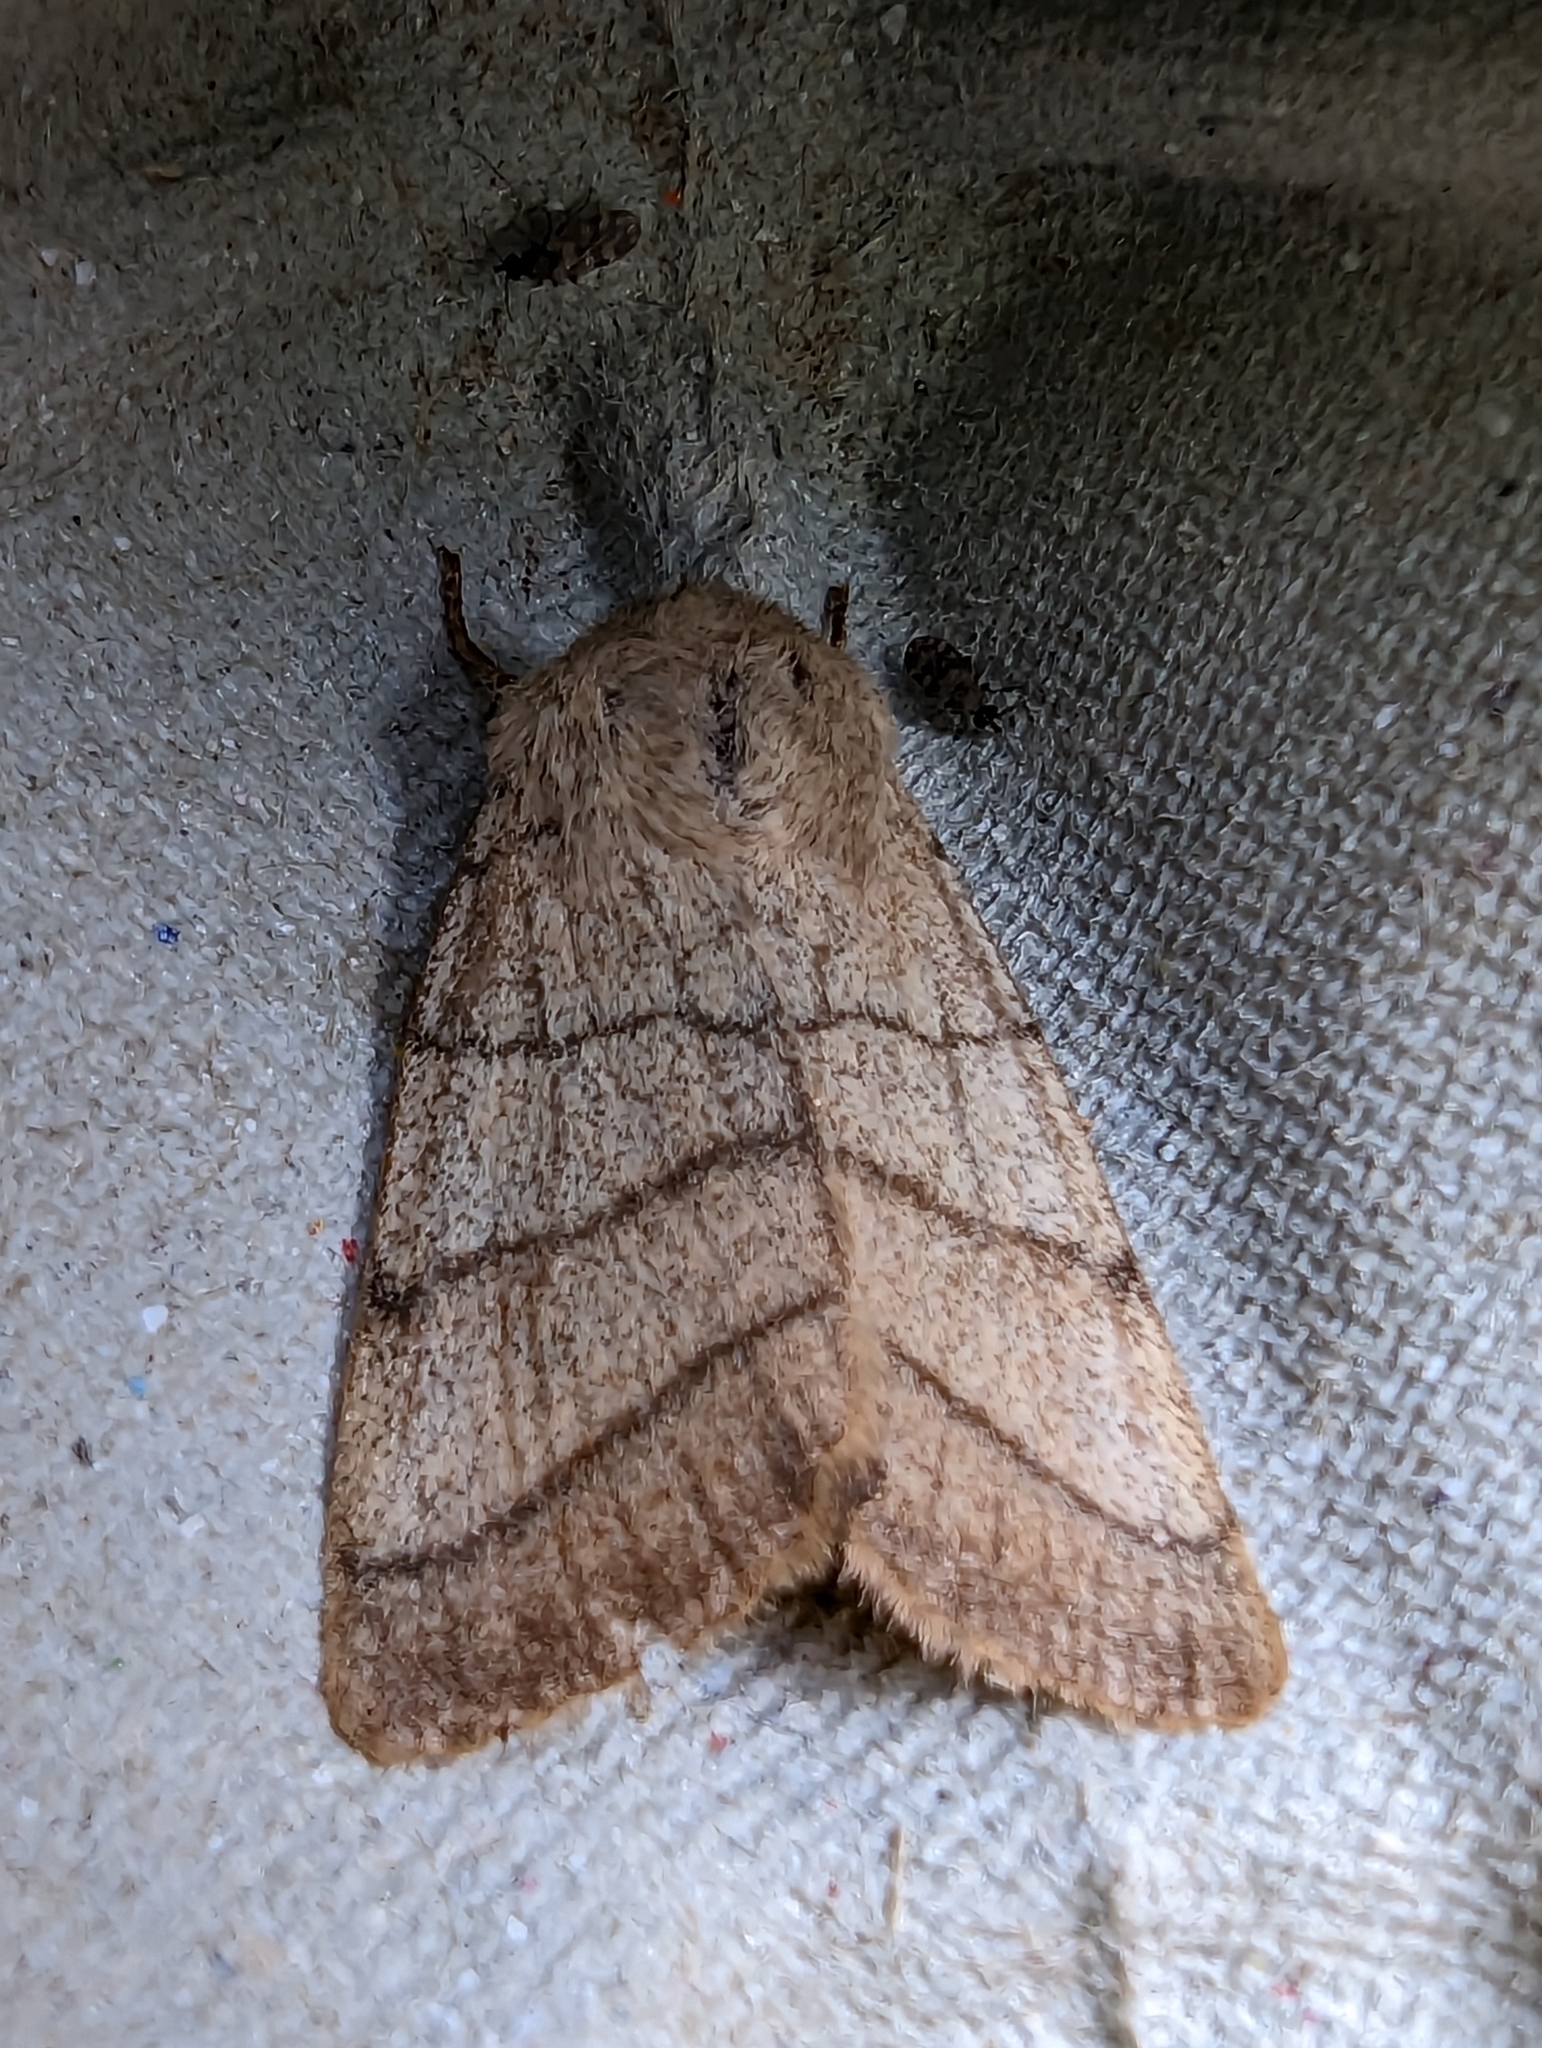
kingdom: Animalia
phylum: Arthropoda
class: Insecta
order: Lepidoptera
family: Noctuidae
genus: Charanyca
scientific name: Charanyca trigrammica
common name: Treble lines
